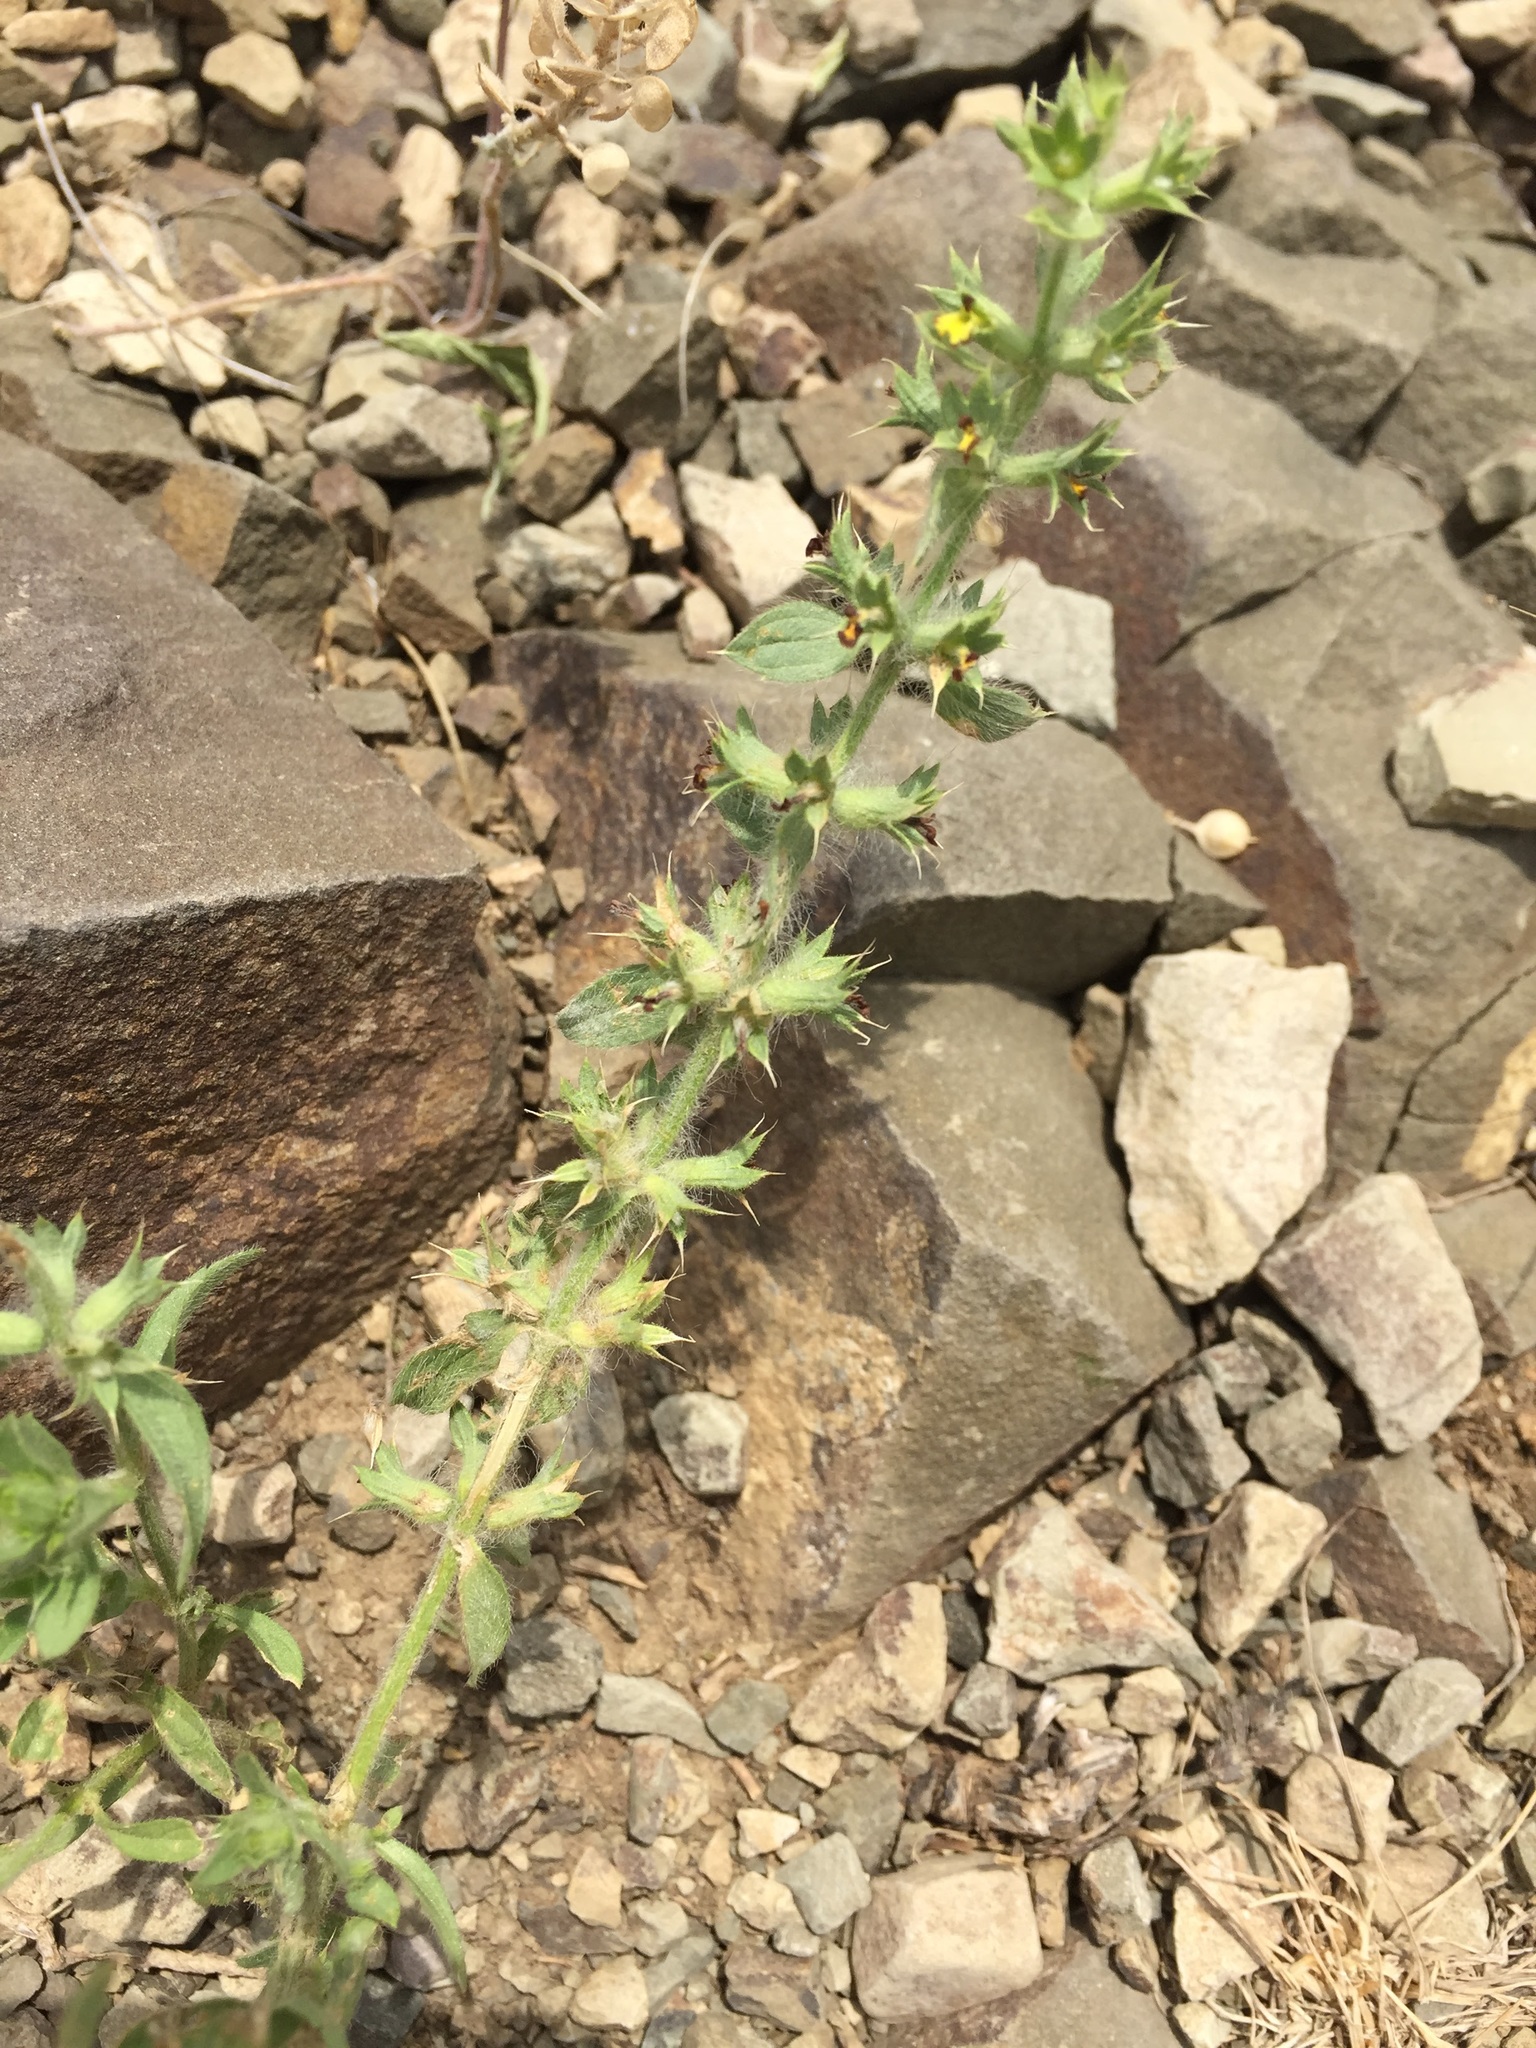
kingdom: Plantae
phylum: Tracheophyta
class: Magnoliopsida
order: Lamiales
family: Lamiaceae
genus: Sideritis
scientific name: Sideritis montana
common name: Mountain ironwort
